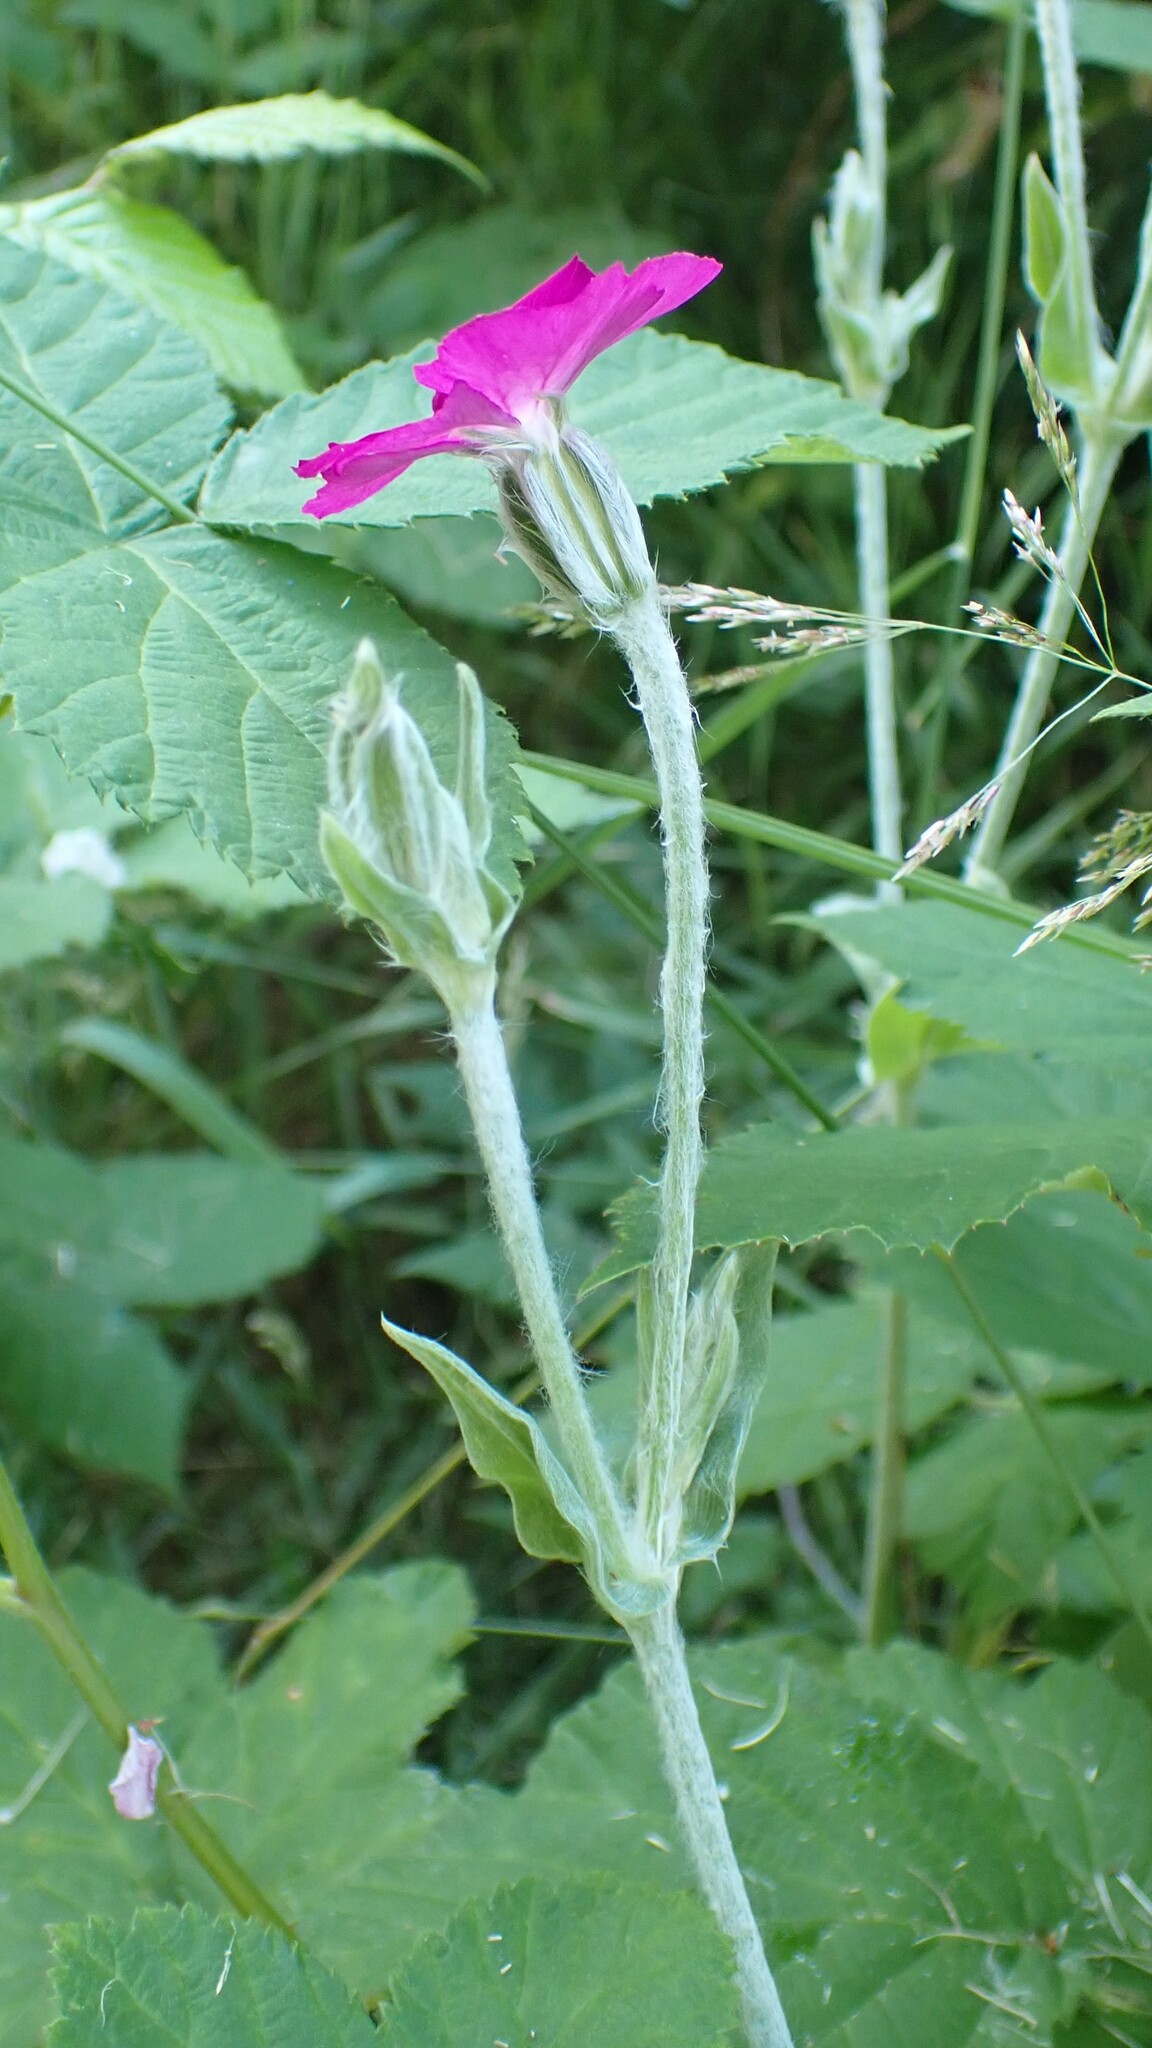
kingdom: Plantae
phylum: Tracheophyta
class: Magnoliopsida
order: Caryophyllales
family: Caryophyllaceae
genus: Silene
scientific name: Silene coronaria
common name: Rose campion
